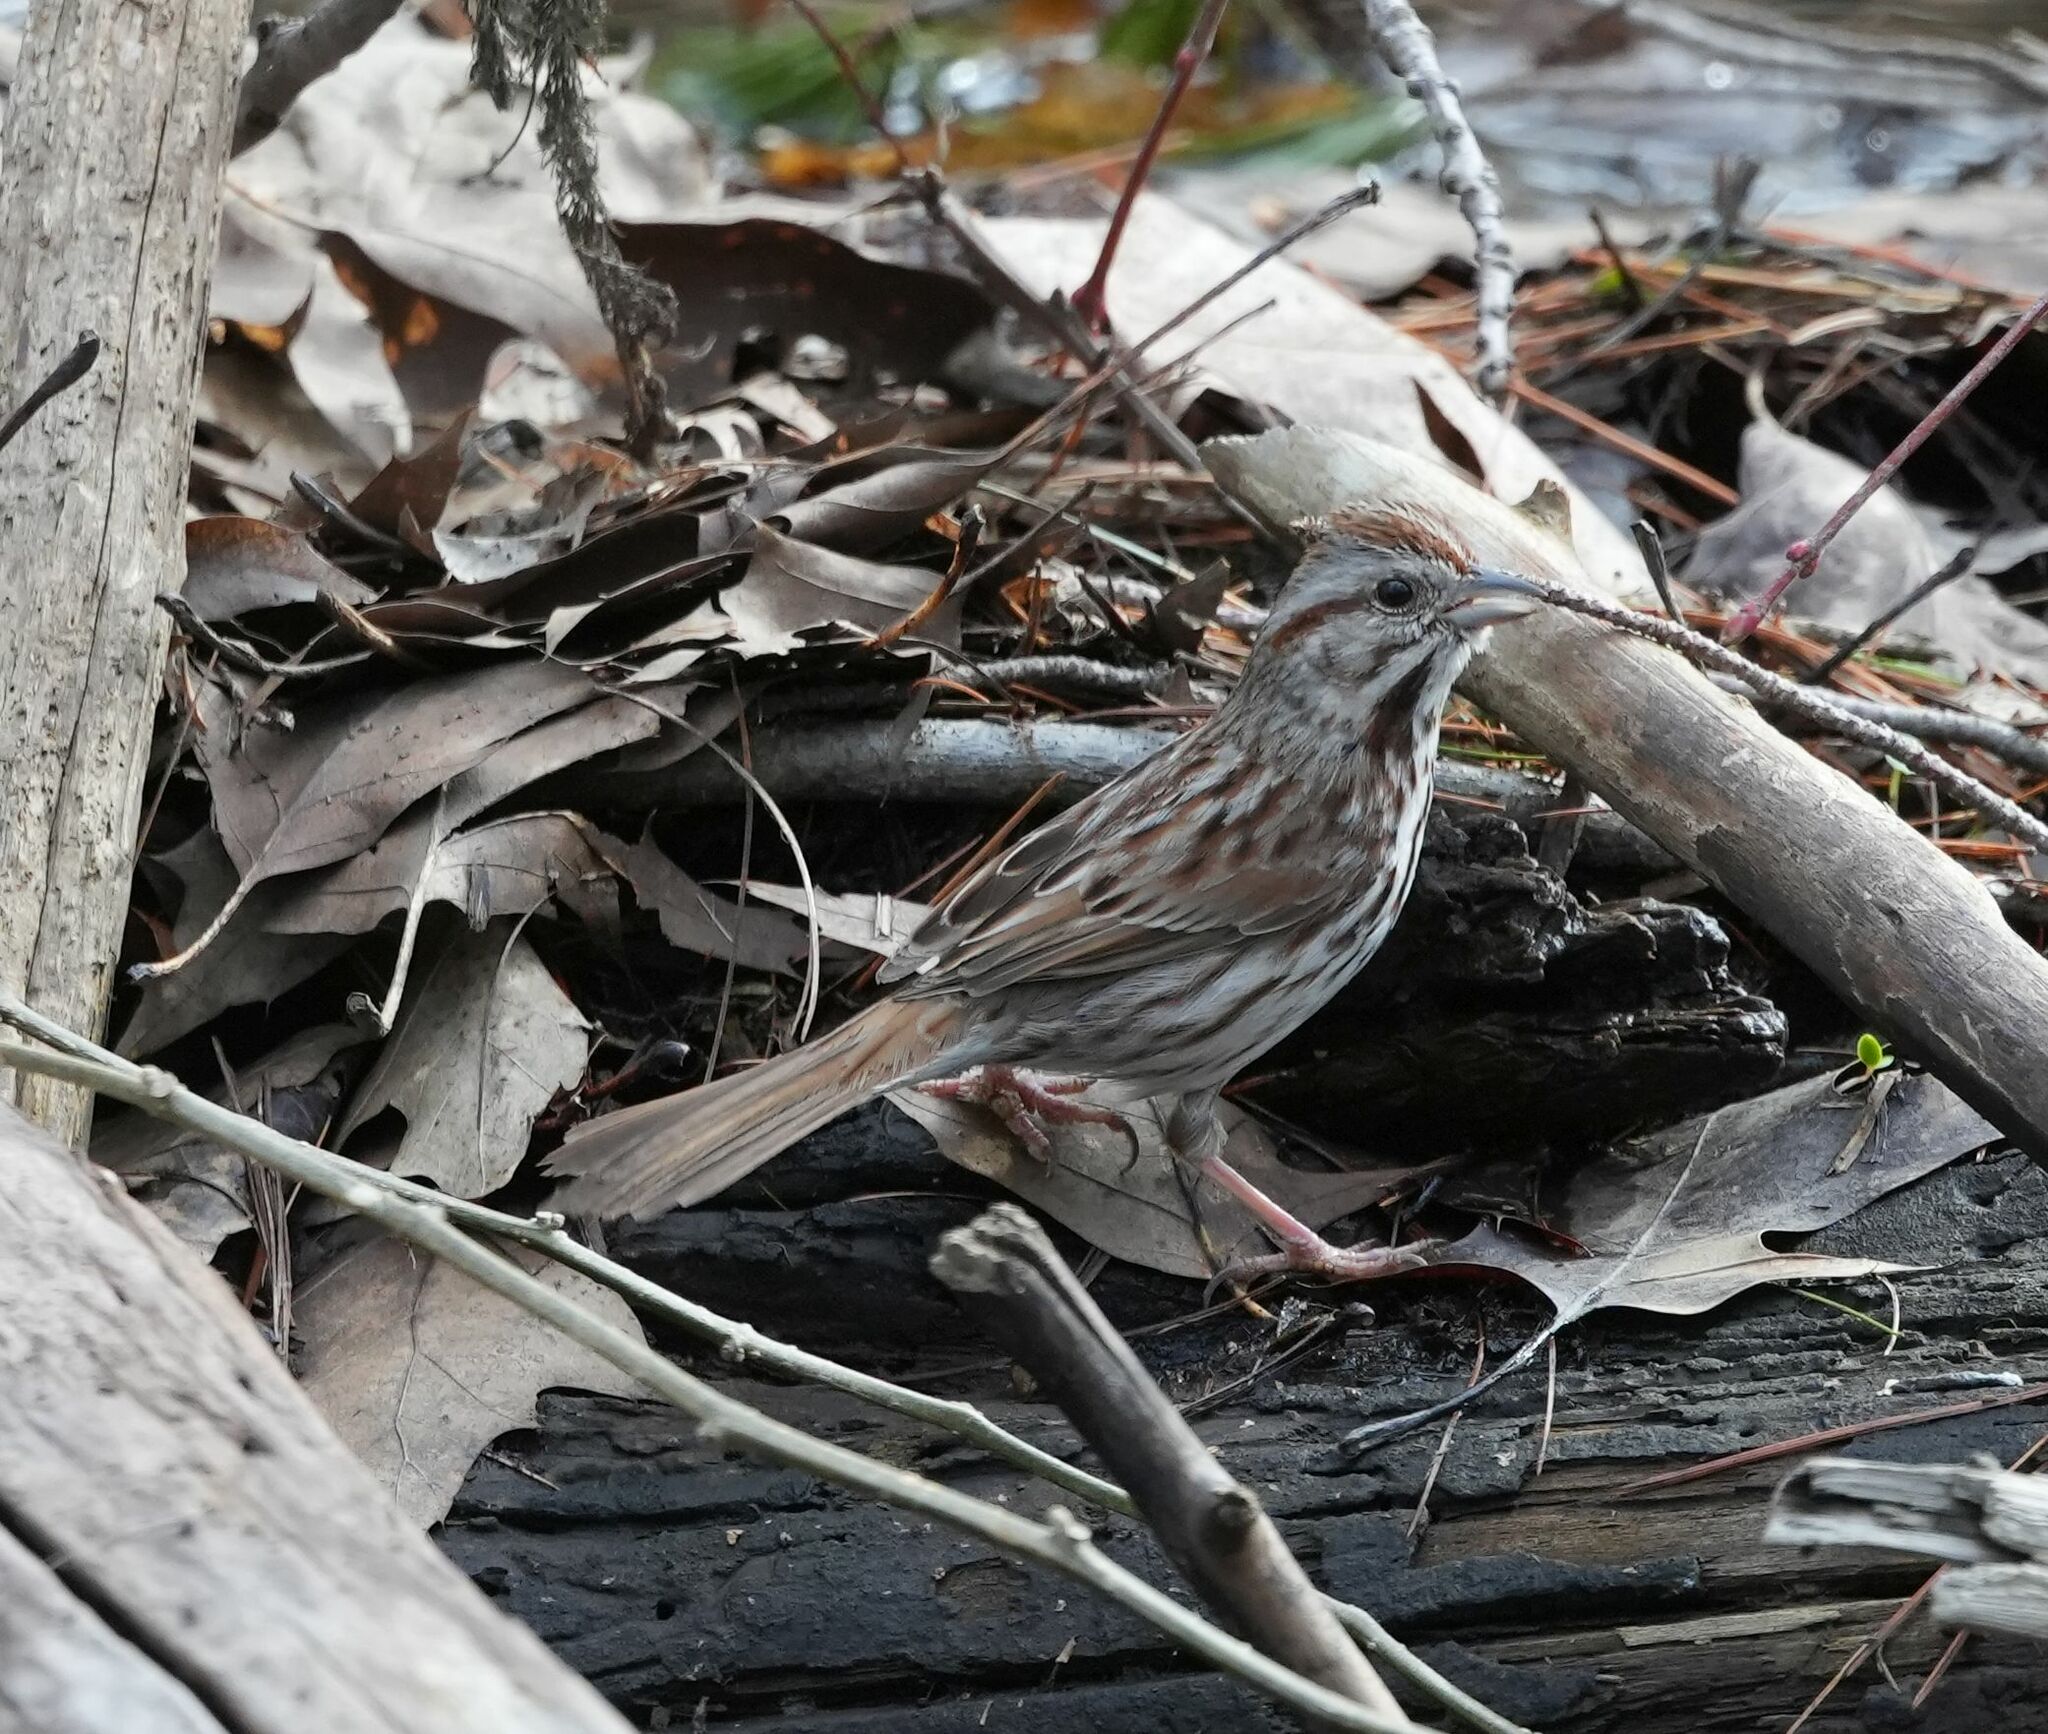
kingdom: Animalia
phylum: Chordata
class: Aves
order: Passeriformes
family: Passerellidae
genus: Melospiza
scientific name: Melospiza melodia
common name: Song sparrow
